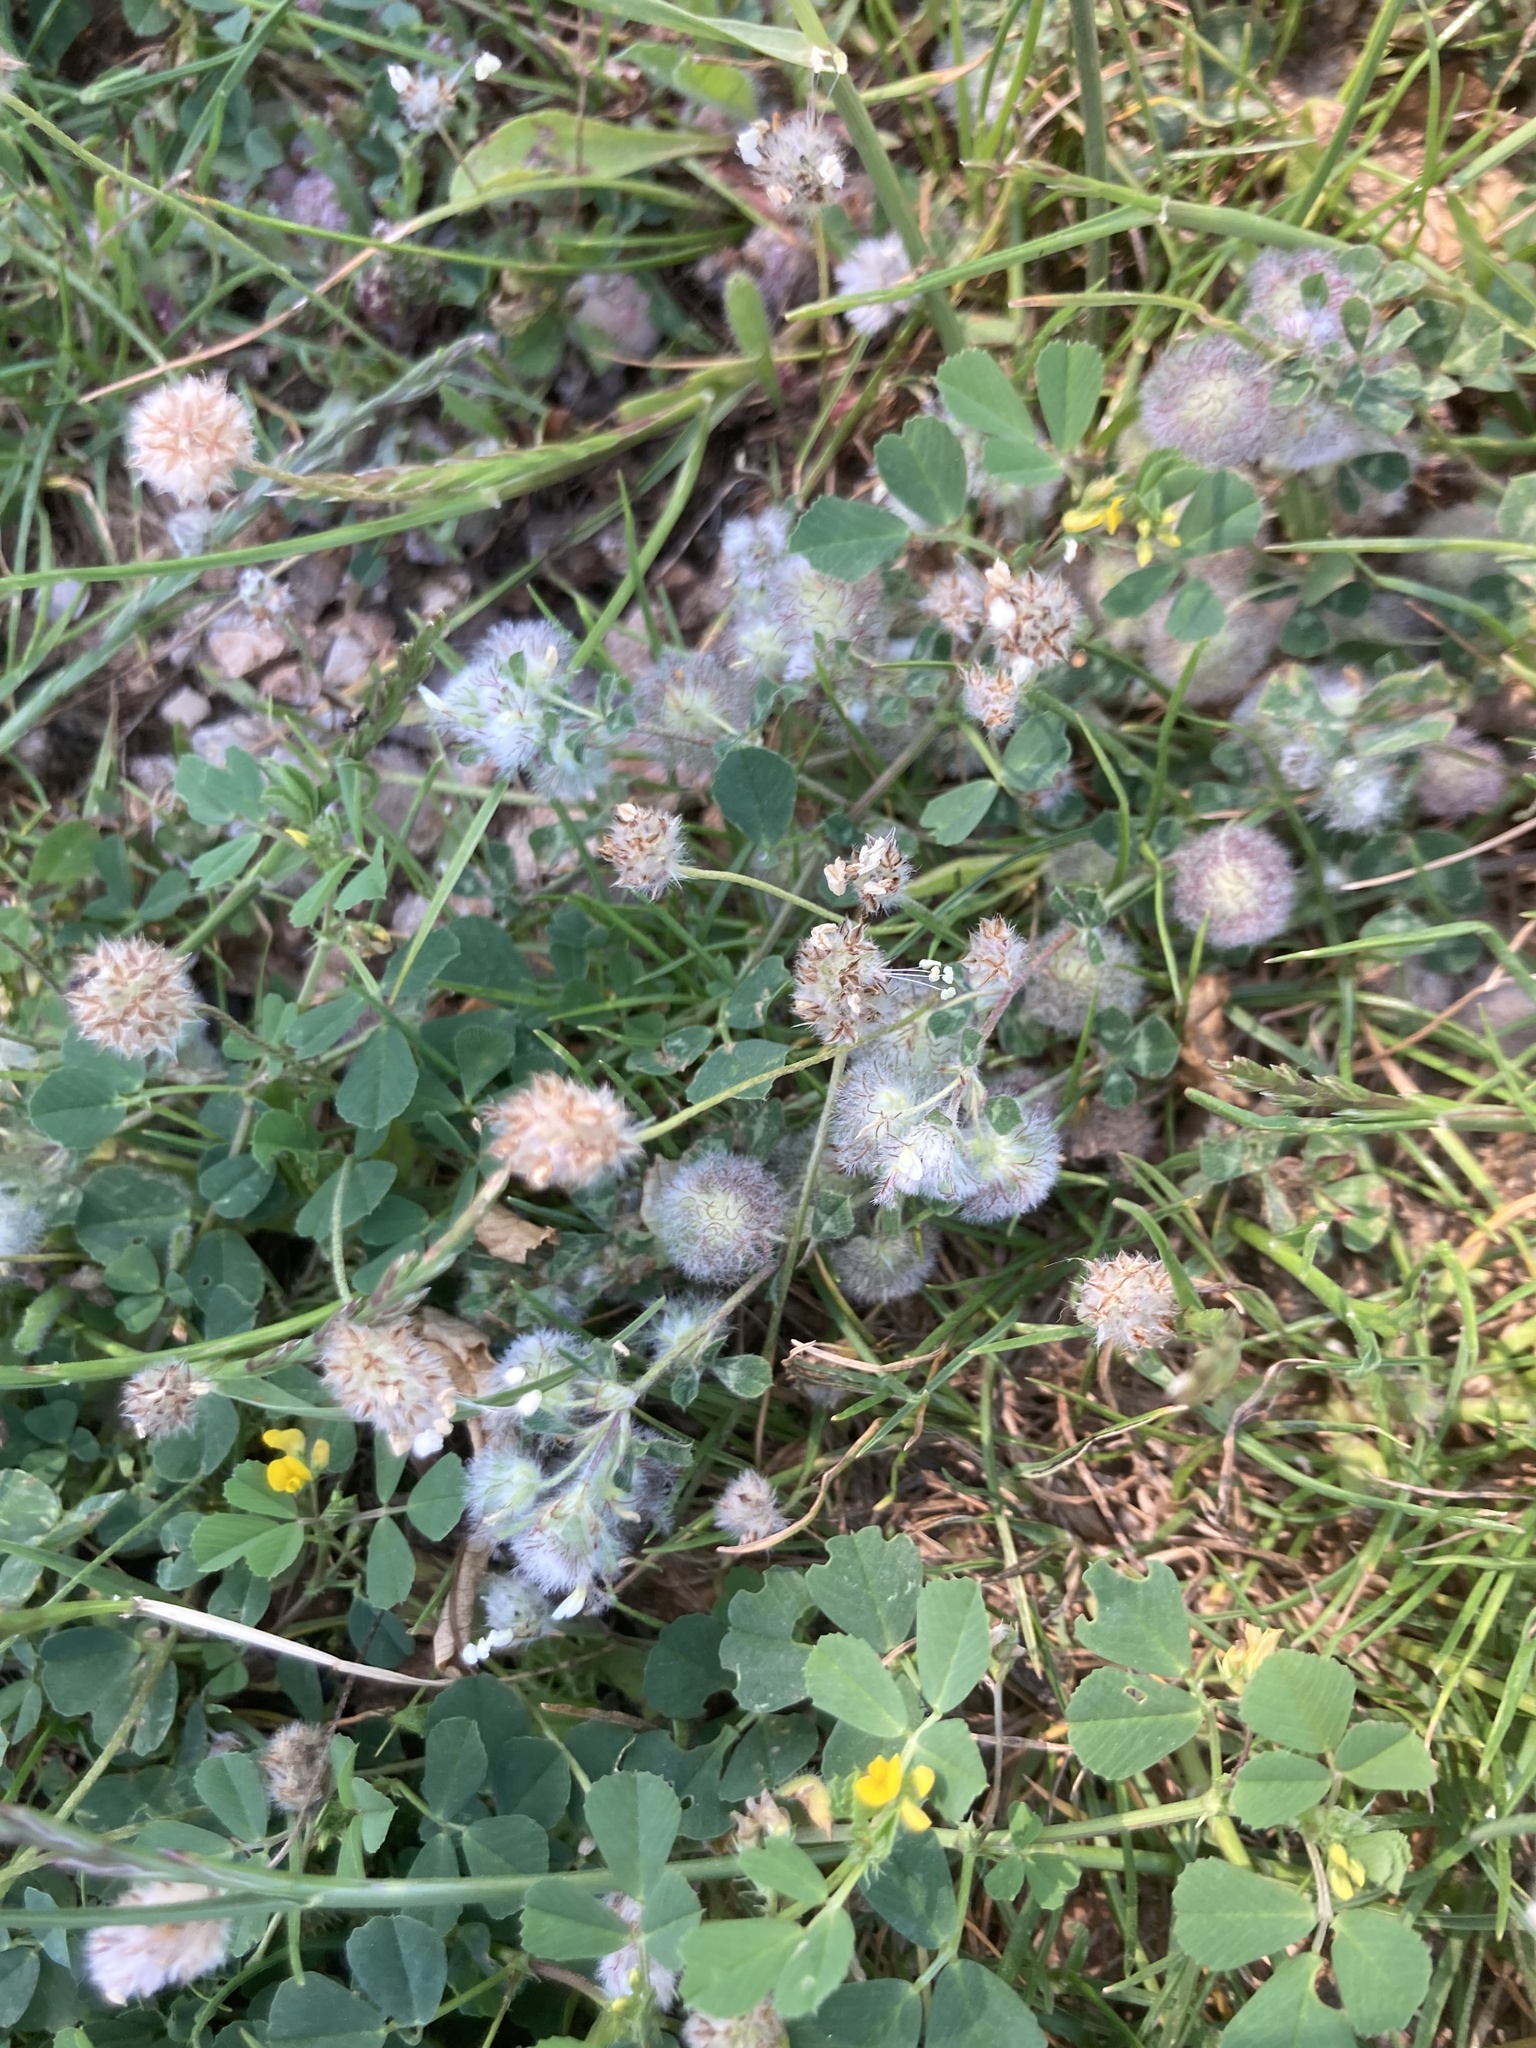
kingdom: Plantae
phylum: Tracheophyta
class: Magnoliopsida
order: Fabales
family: Fabaceae
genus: Trifolium
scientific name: Trifolium pilulare
